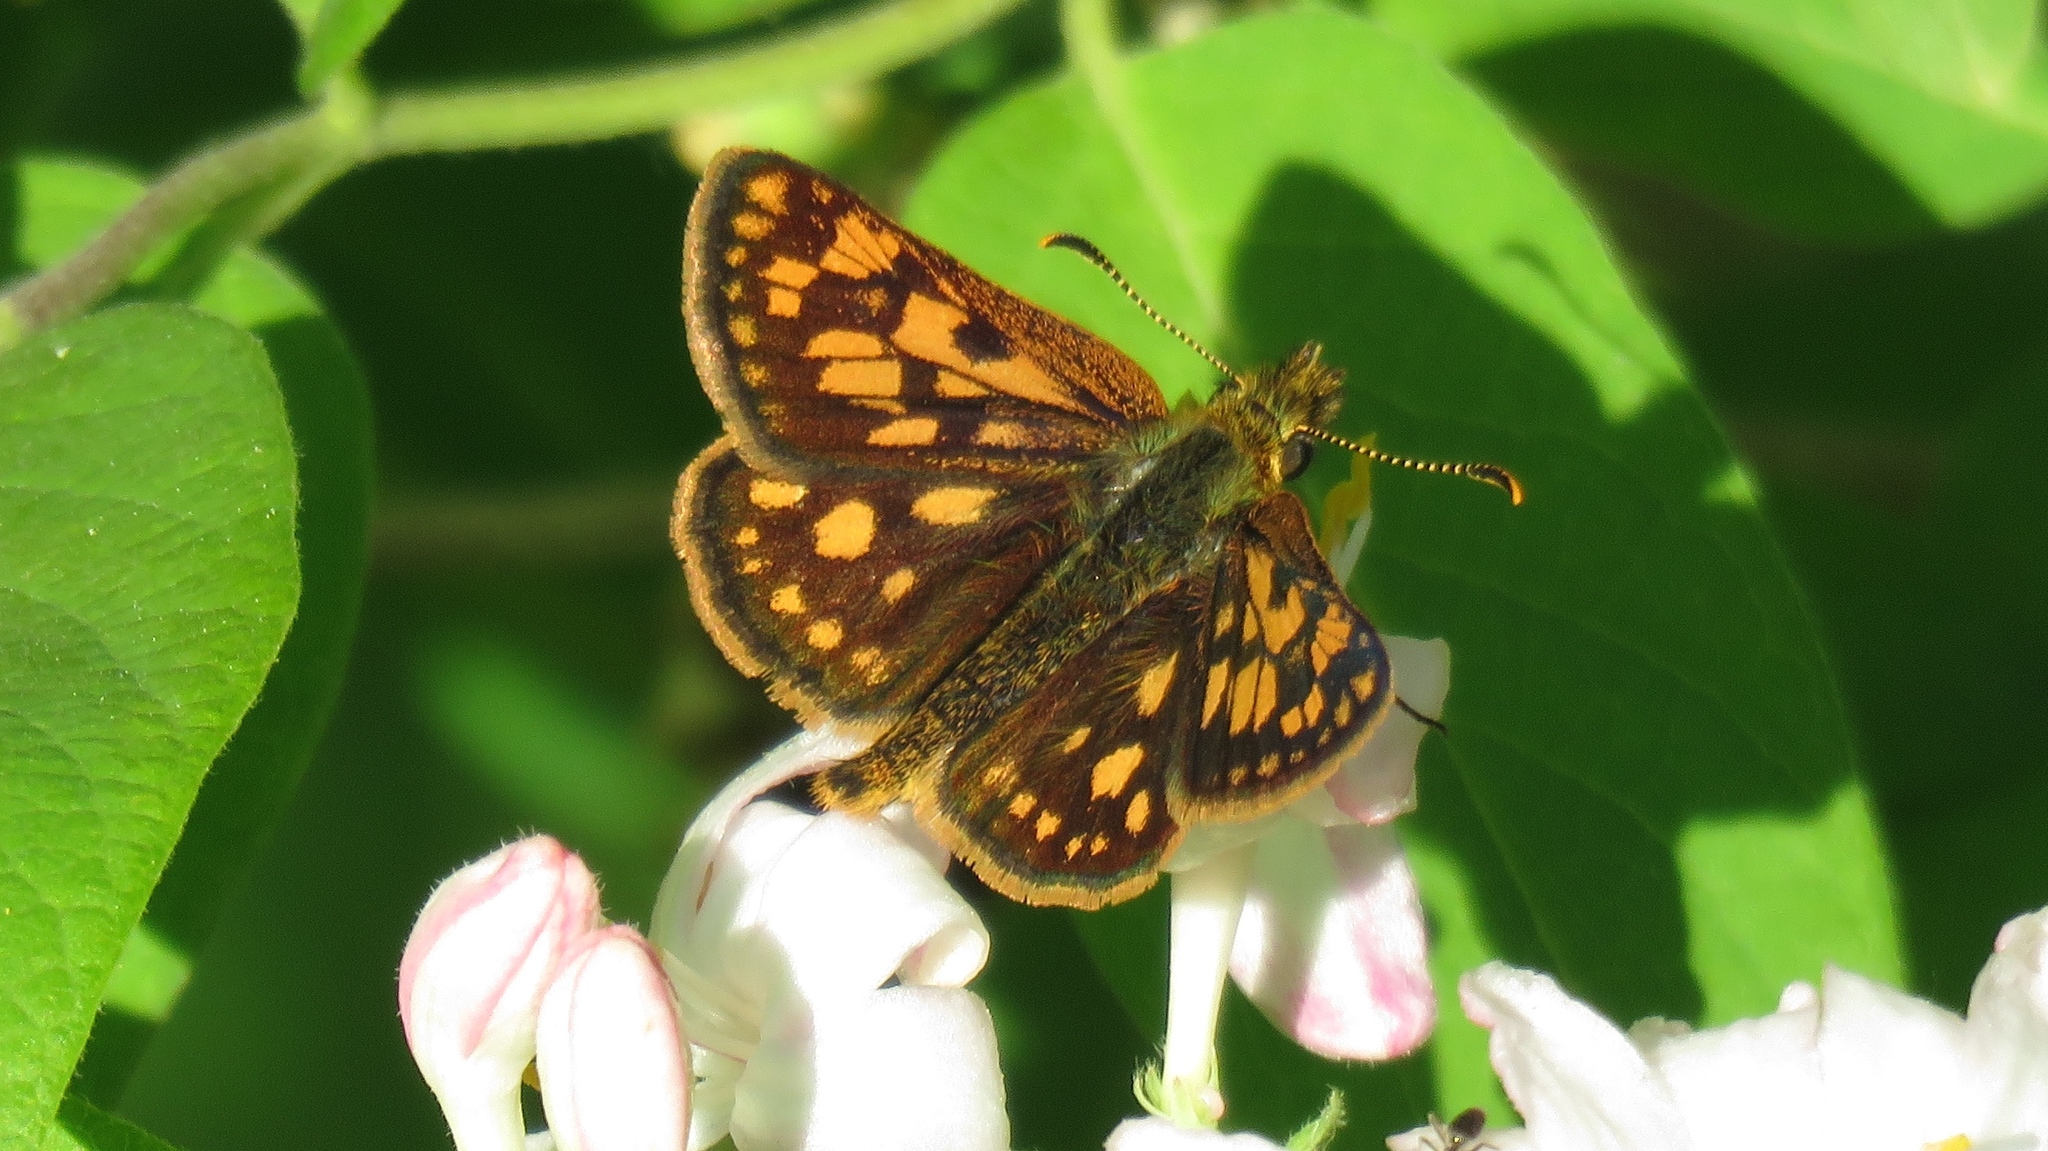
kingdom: Animalia
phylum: Arthropoda
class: Insecta
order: Lepidoptera
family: Hesperiidae
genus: Carterocephalus
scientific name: Carterocephalus mandan
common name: Arctic skipperling
